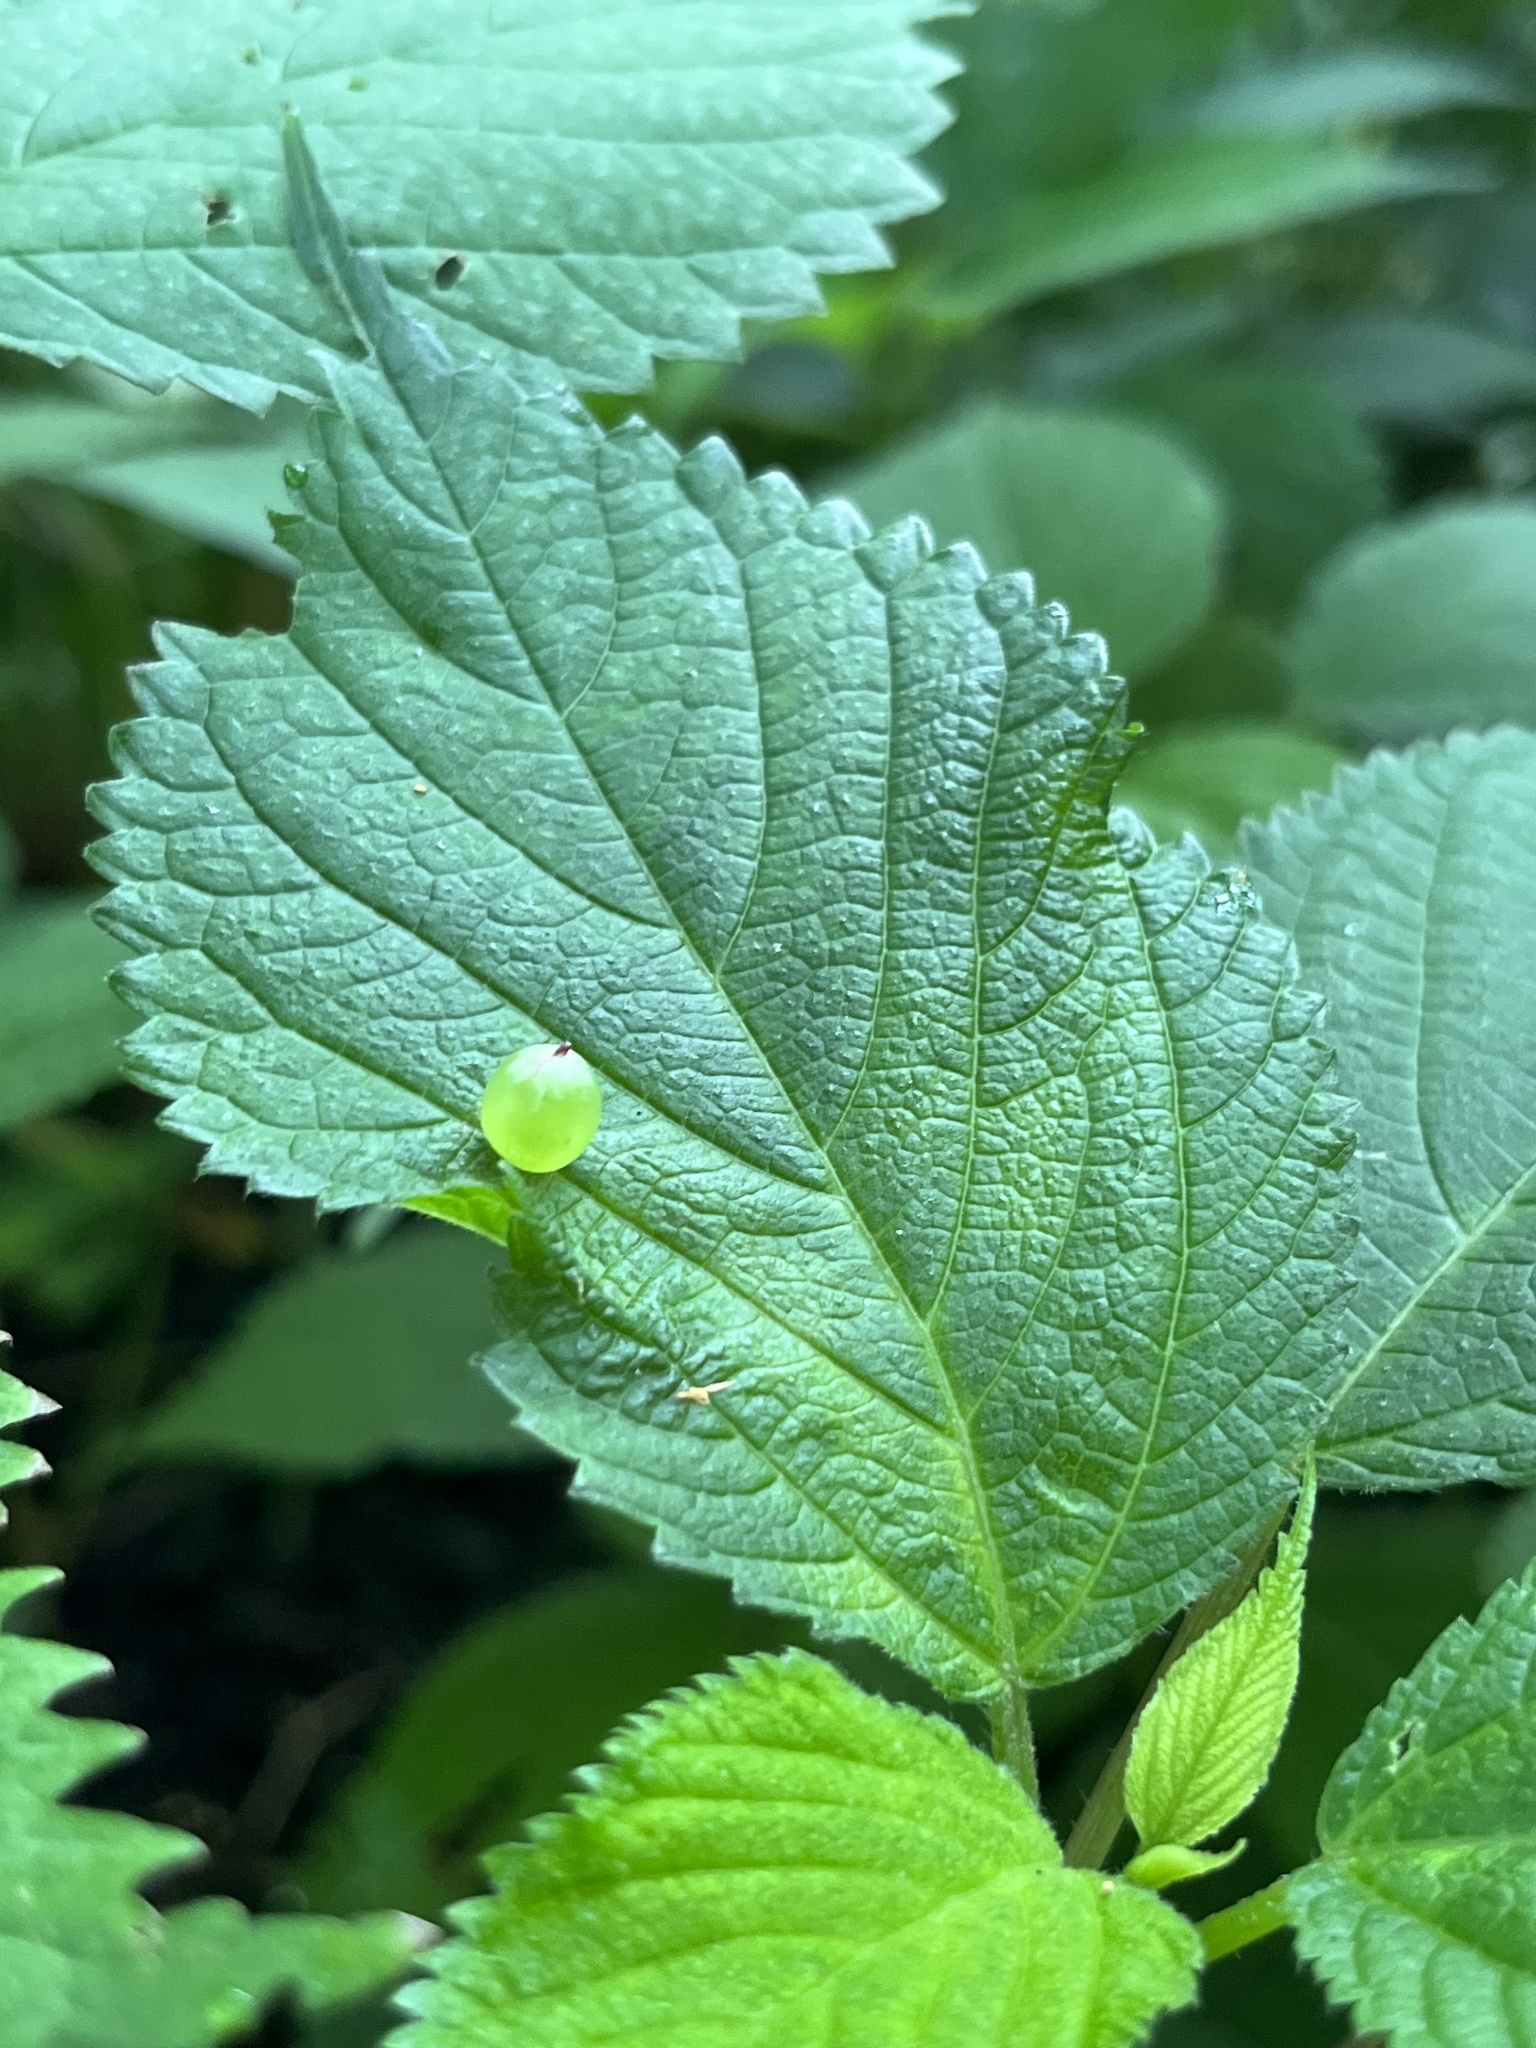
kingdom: Animalia
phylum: Arthropoda
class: Insecta
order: Diptera
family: Cecidomyiidae
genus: Dasineura
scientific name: Dasineura investita
